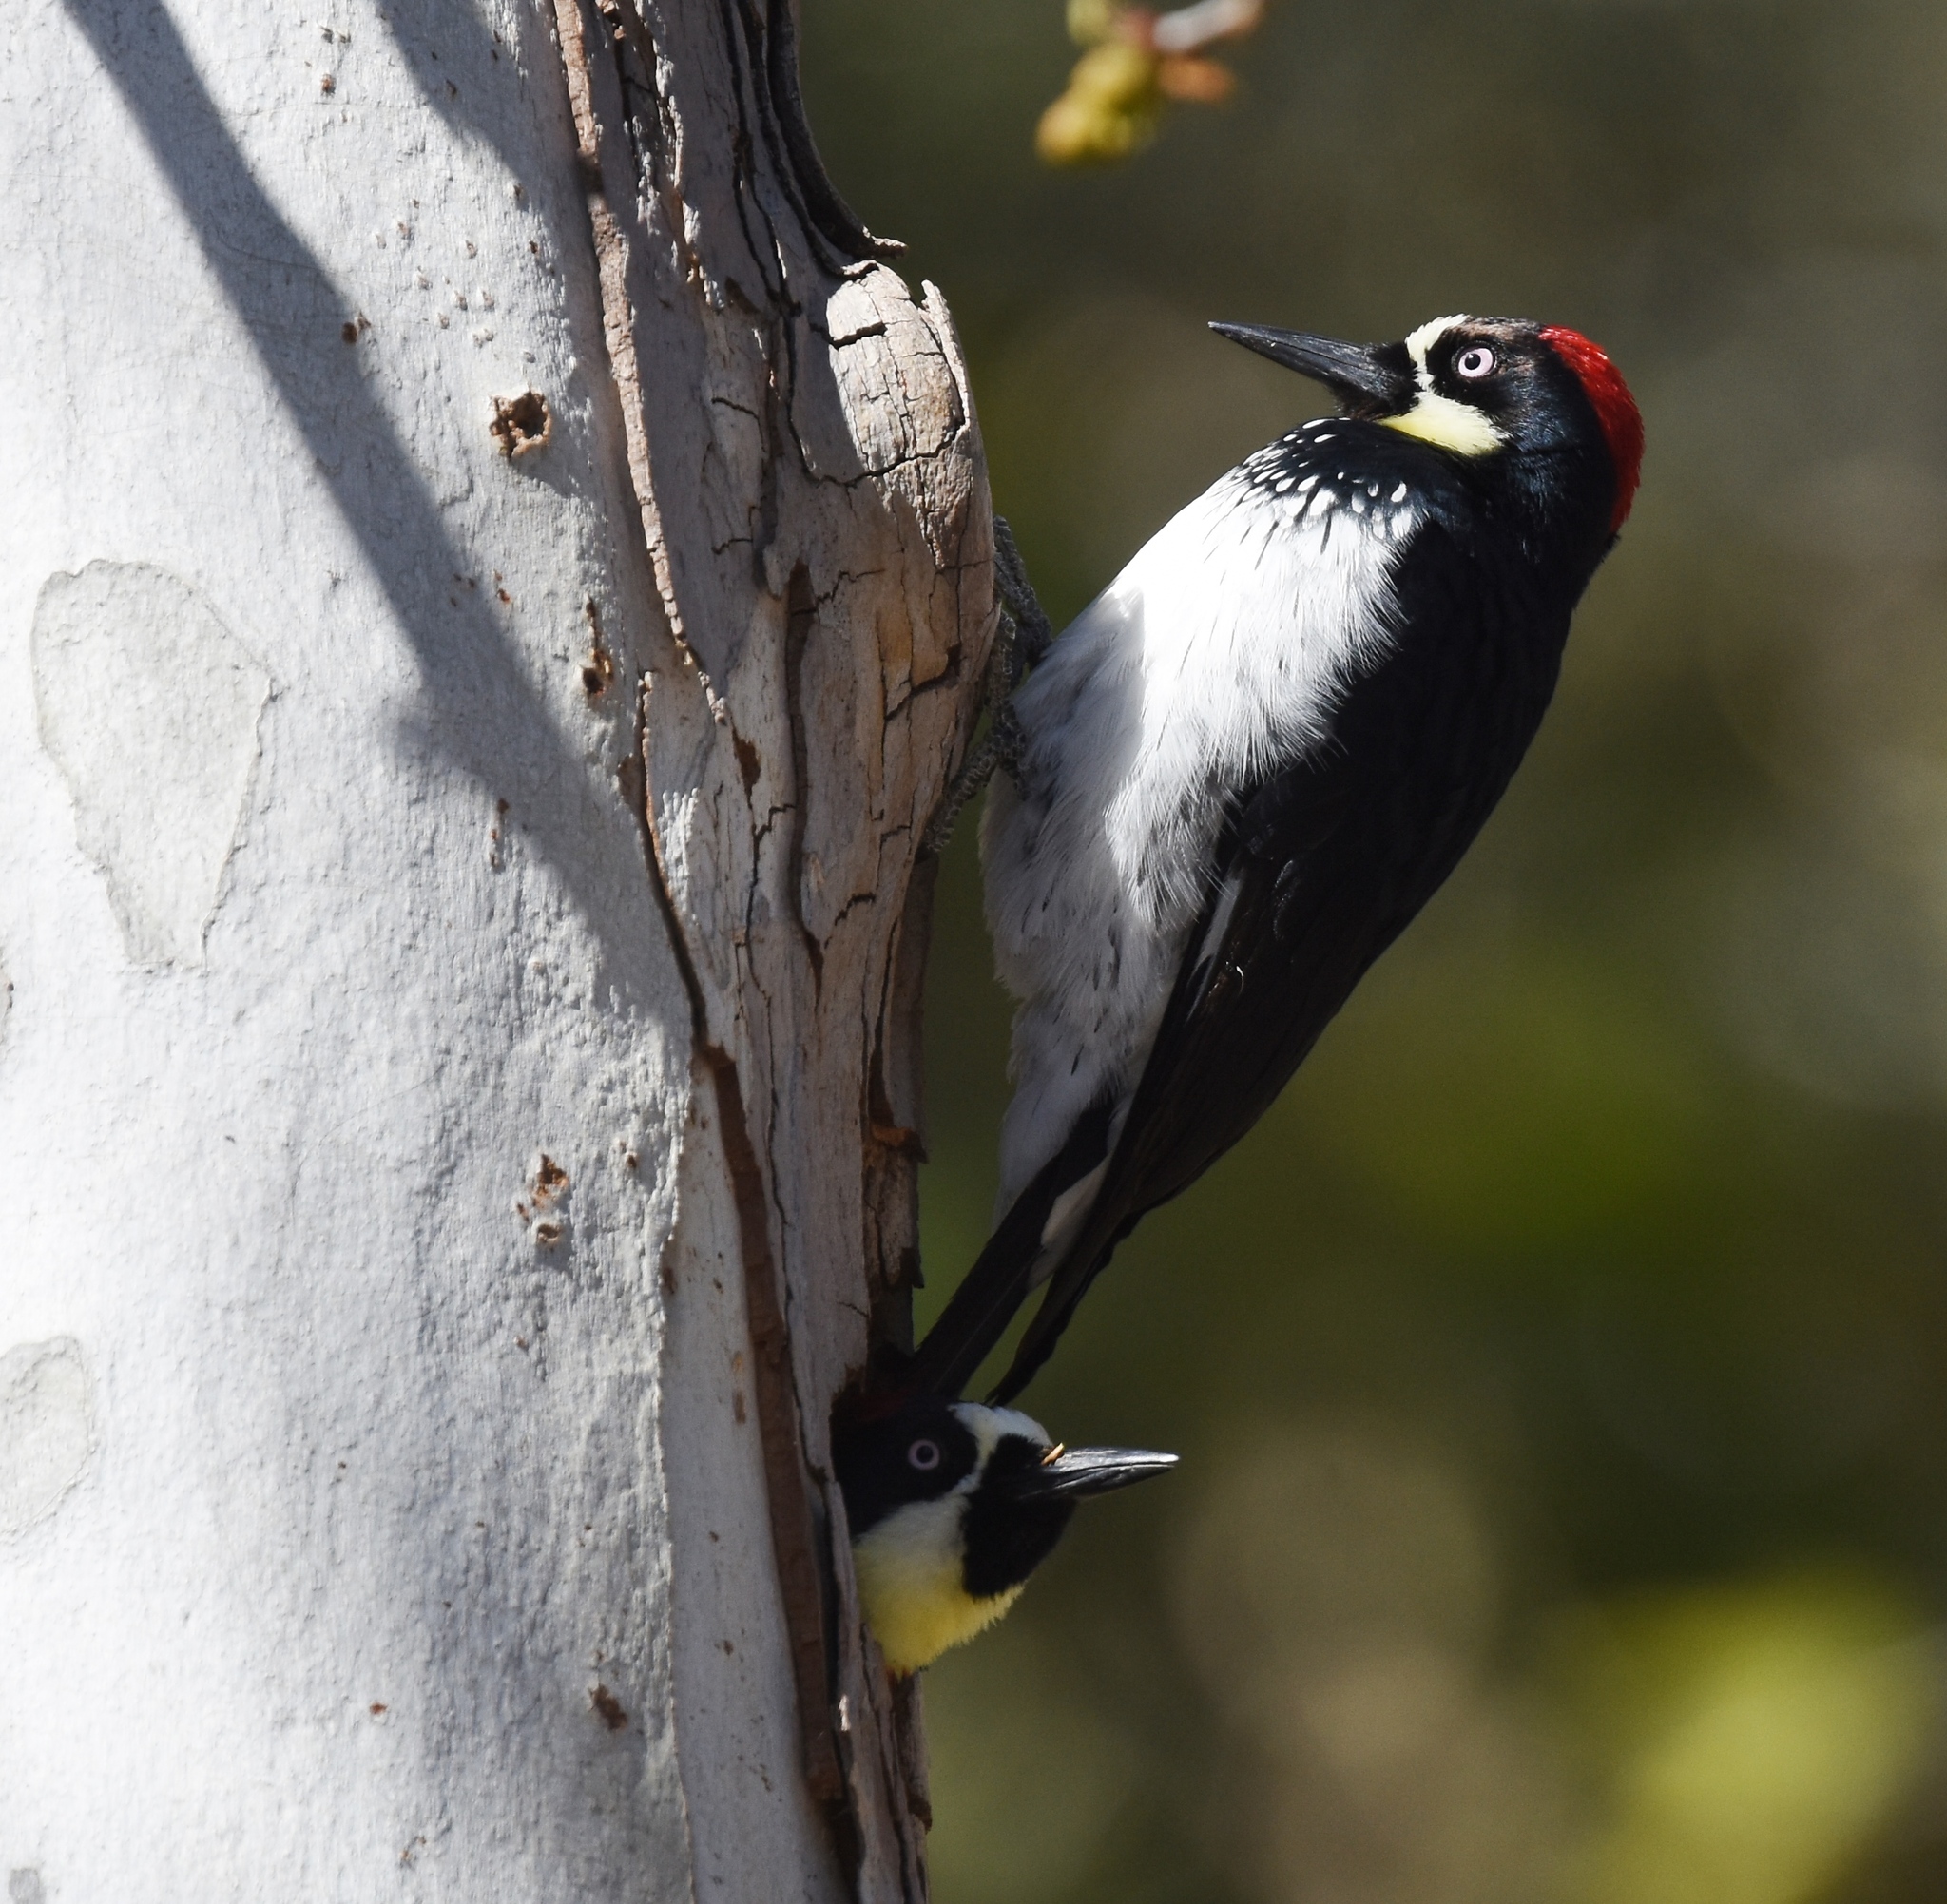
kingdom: Animalia
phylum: Chordata
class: Aves
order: Piciformes
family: Picidae
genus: Melanerpes
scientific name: Melanerpes formicivorus
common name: Acorn woodpecker
